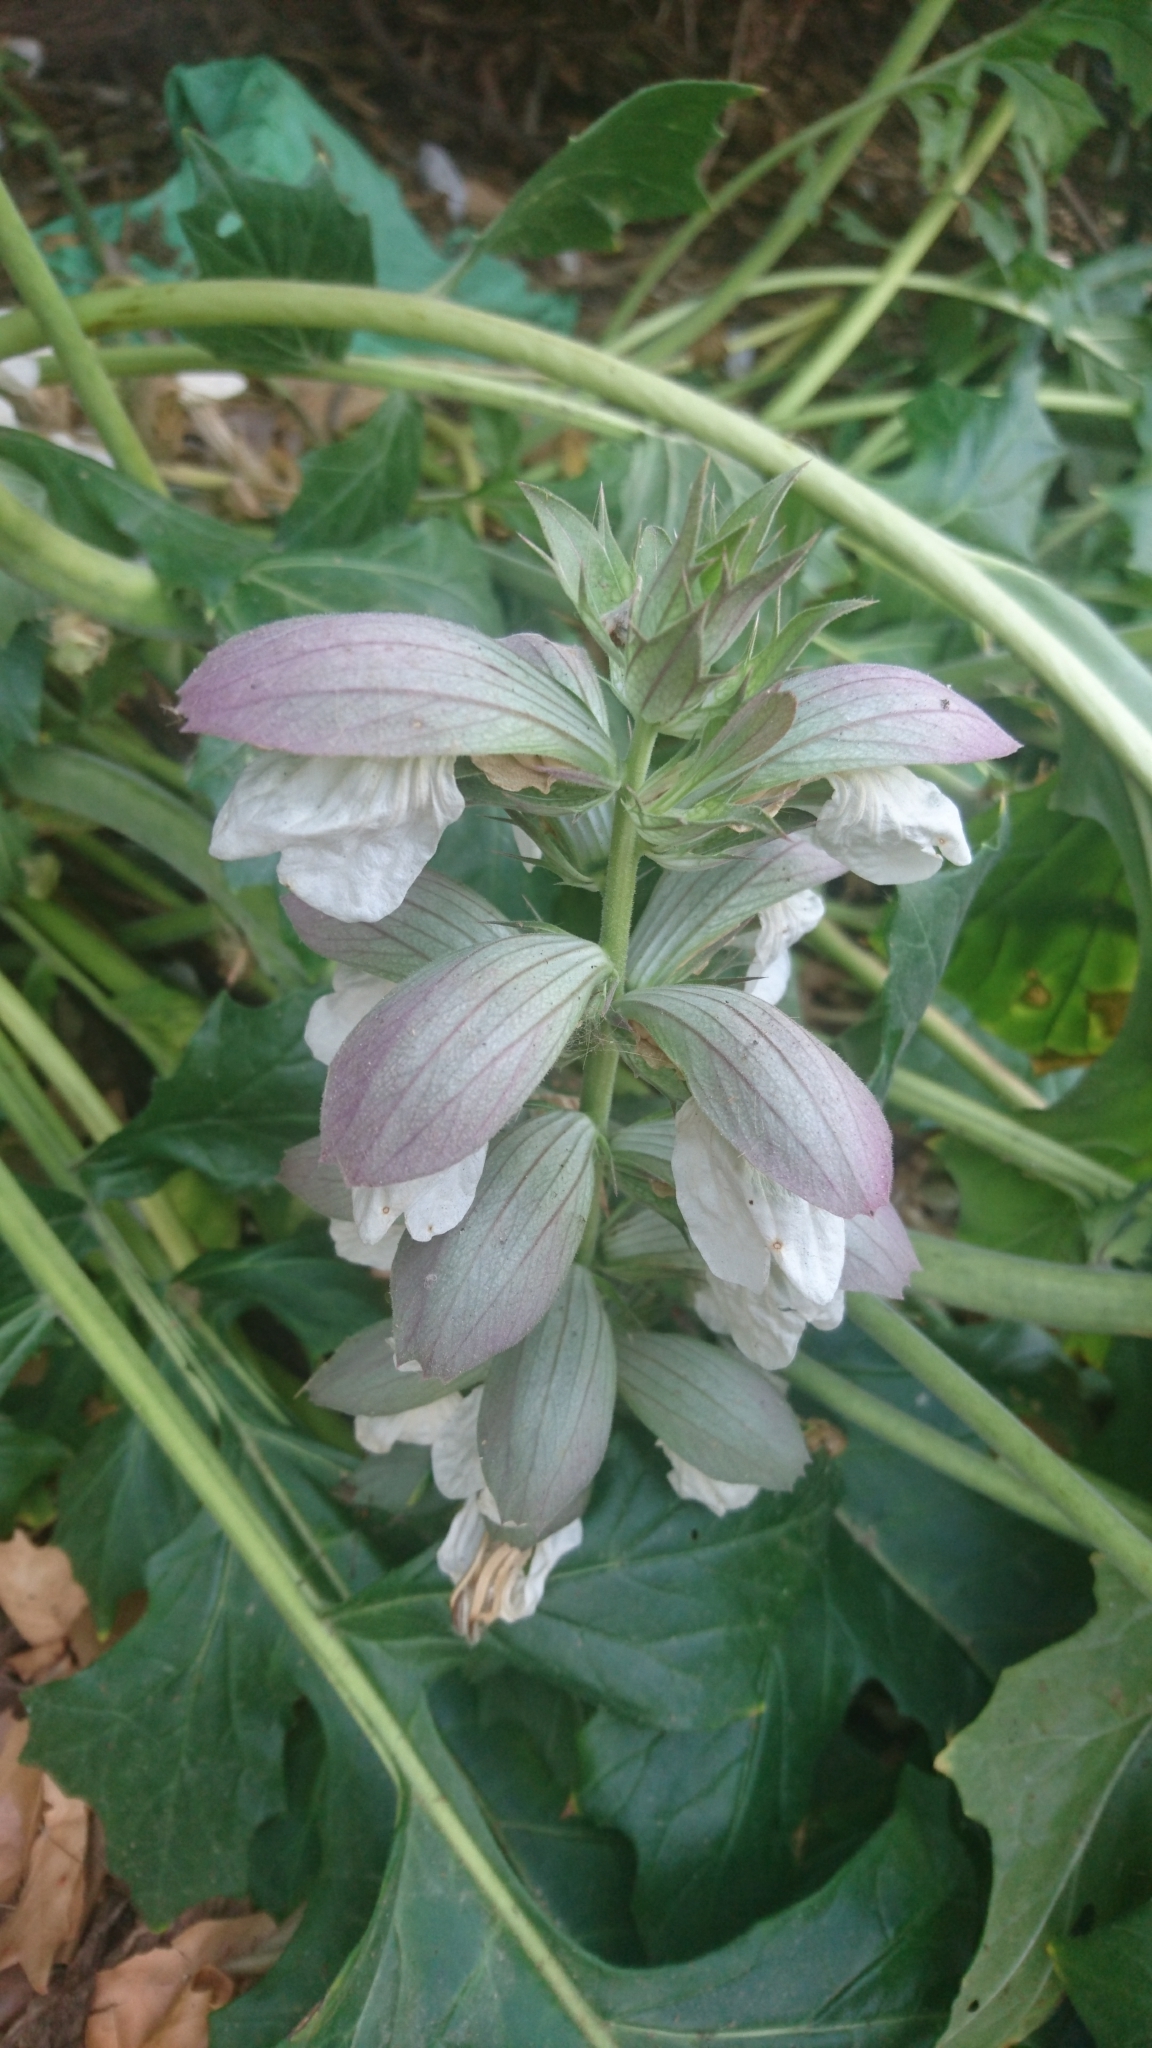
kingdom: Plantae
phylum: Tracheophyta
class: Magnoliopsida
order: Lamiales
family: Acanthaceae
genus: Acanthus
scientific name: Acanthus mollis
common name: Bear's-breech
